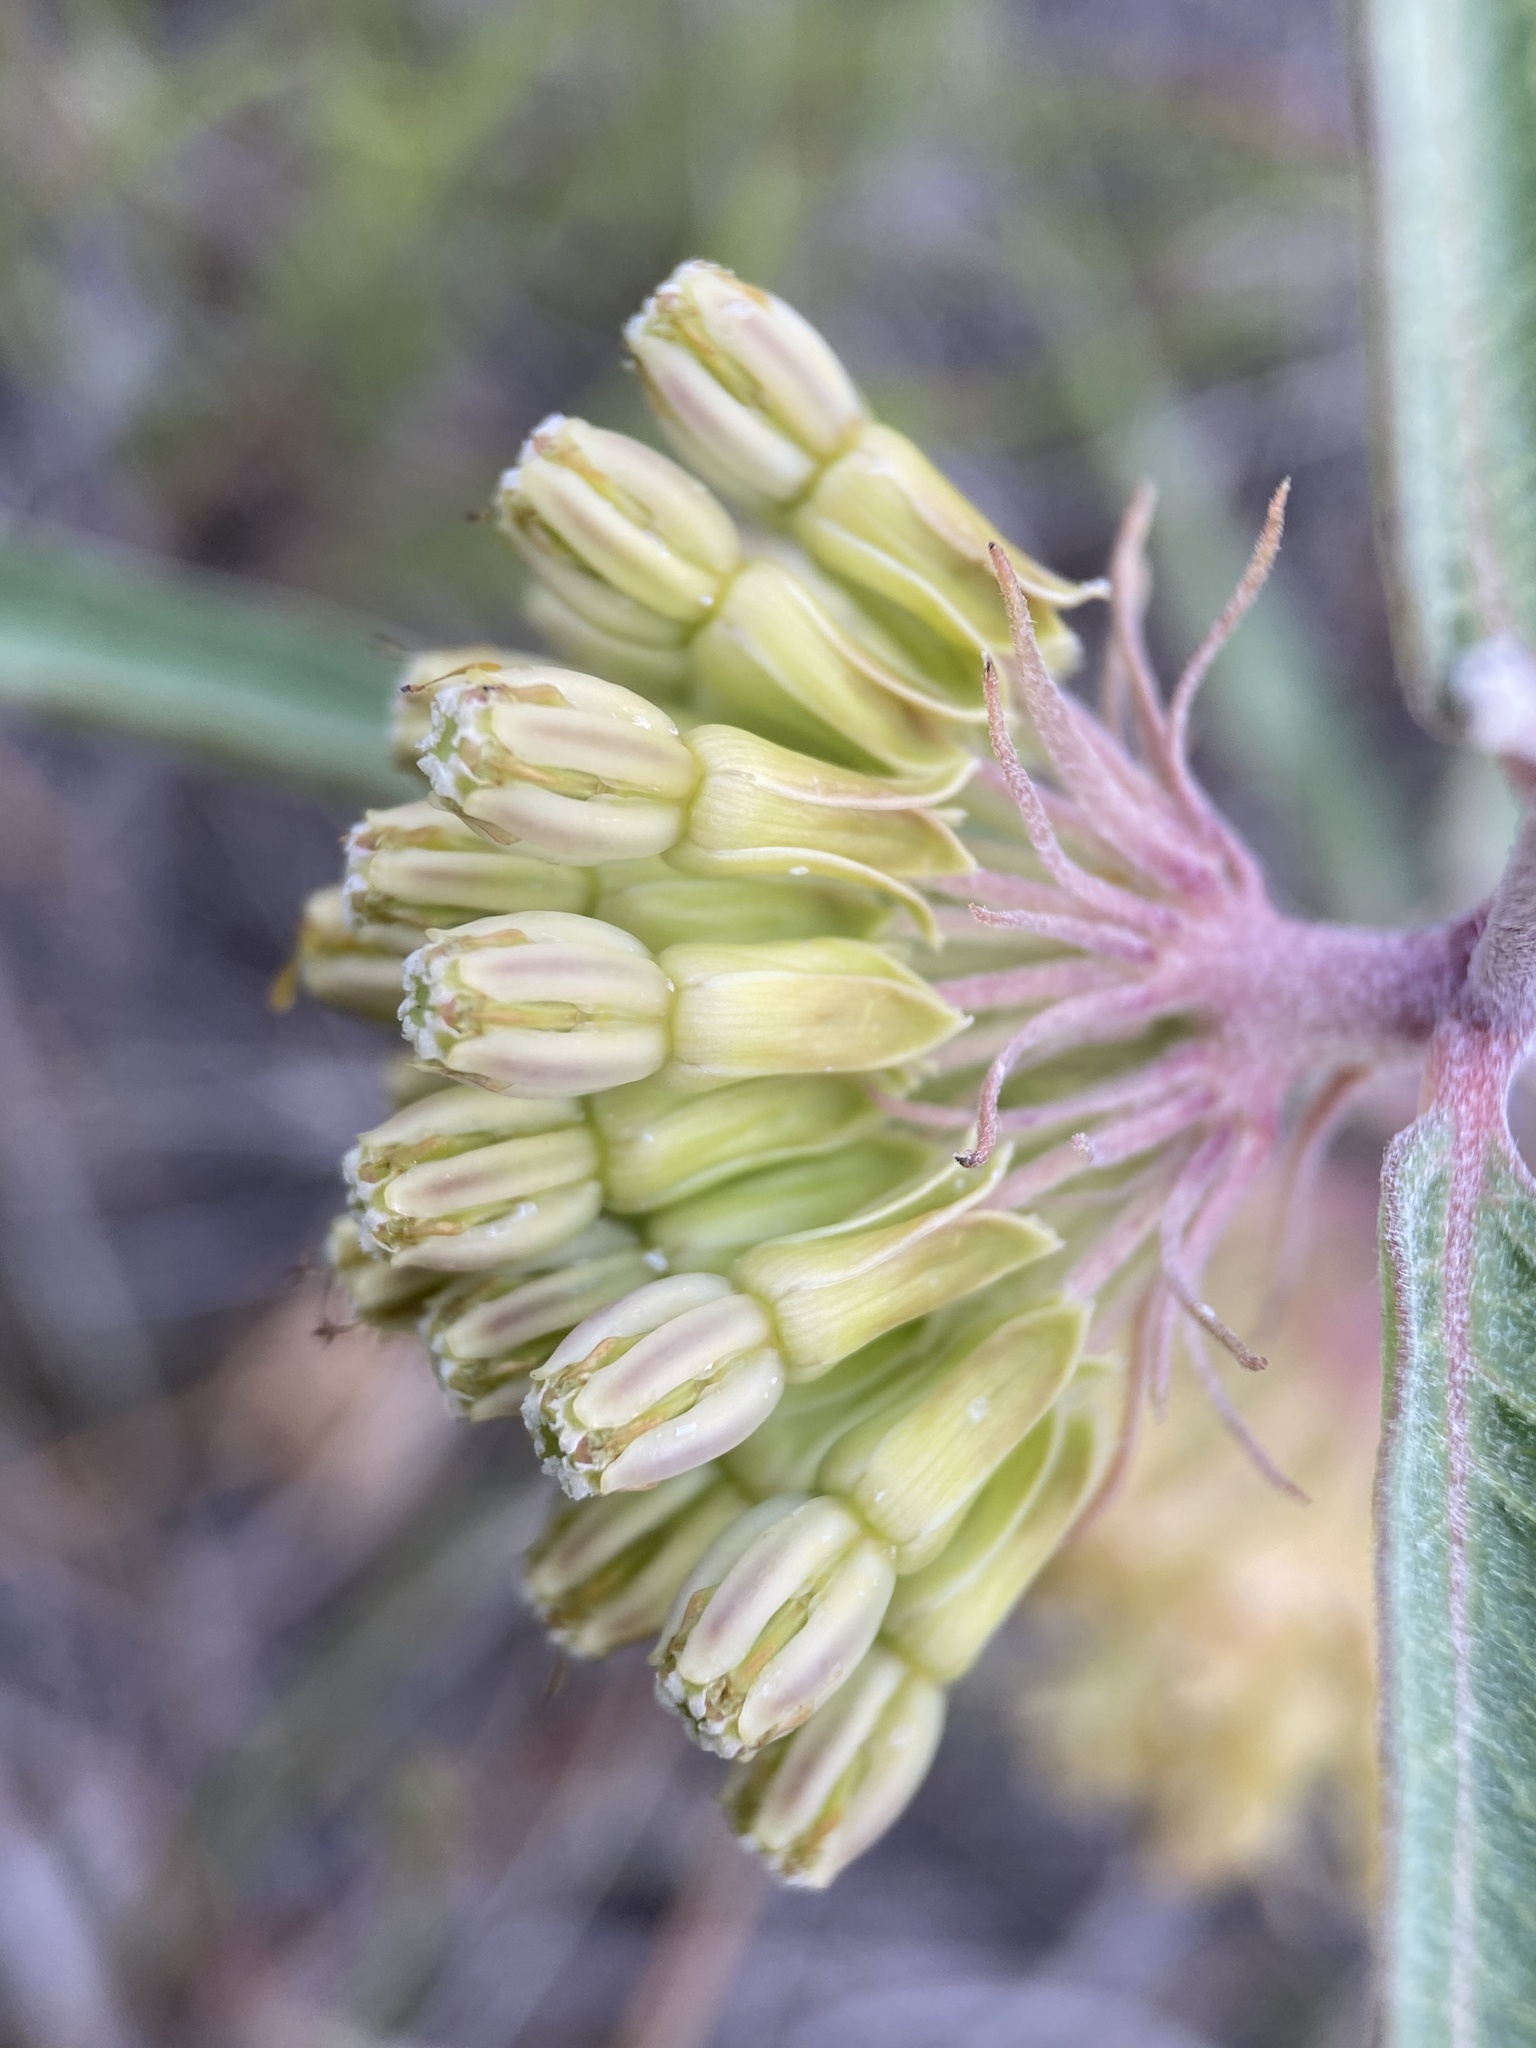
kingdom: Plantae
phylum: Tracheophyta
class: Magnoliopsida
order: Gentianales
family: Apocynaceae
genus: Asclepias
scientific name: Asclepias viridiflora
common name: Green comet milkweed
